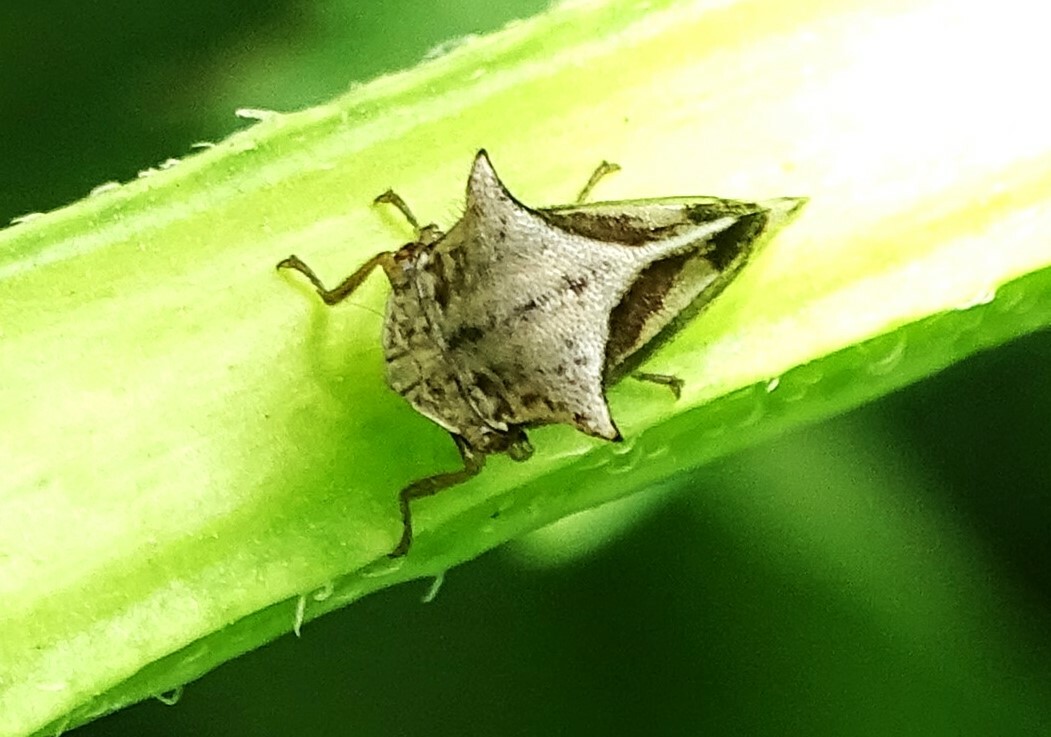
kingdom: Animalia
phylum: Arthropoda
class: Insecta
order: Hemiptera
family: Membracidae
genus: Stictocephala
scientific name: Stictocephala diceros
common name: Two-horned treehopper
